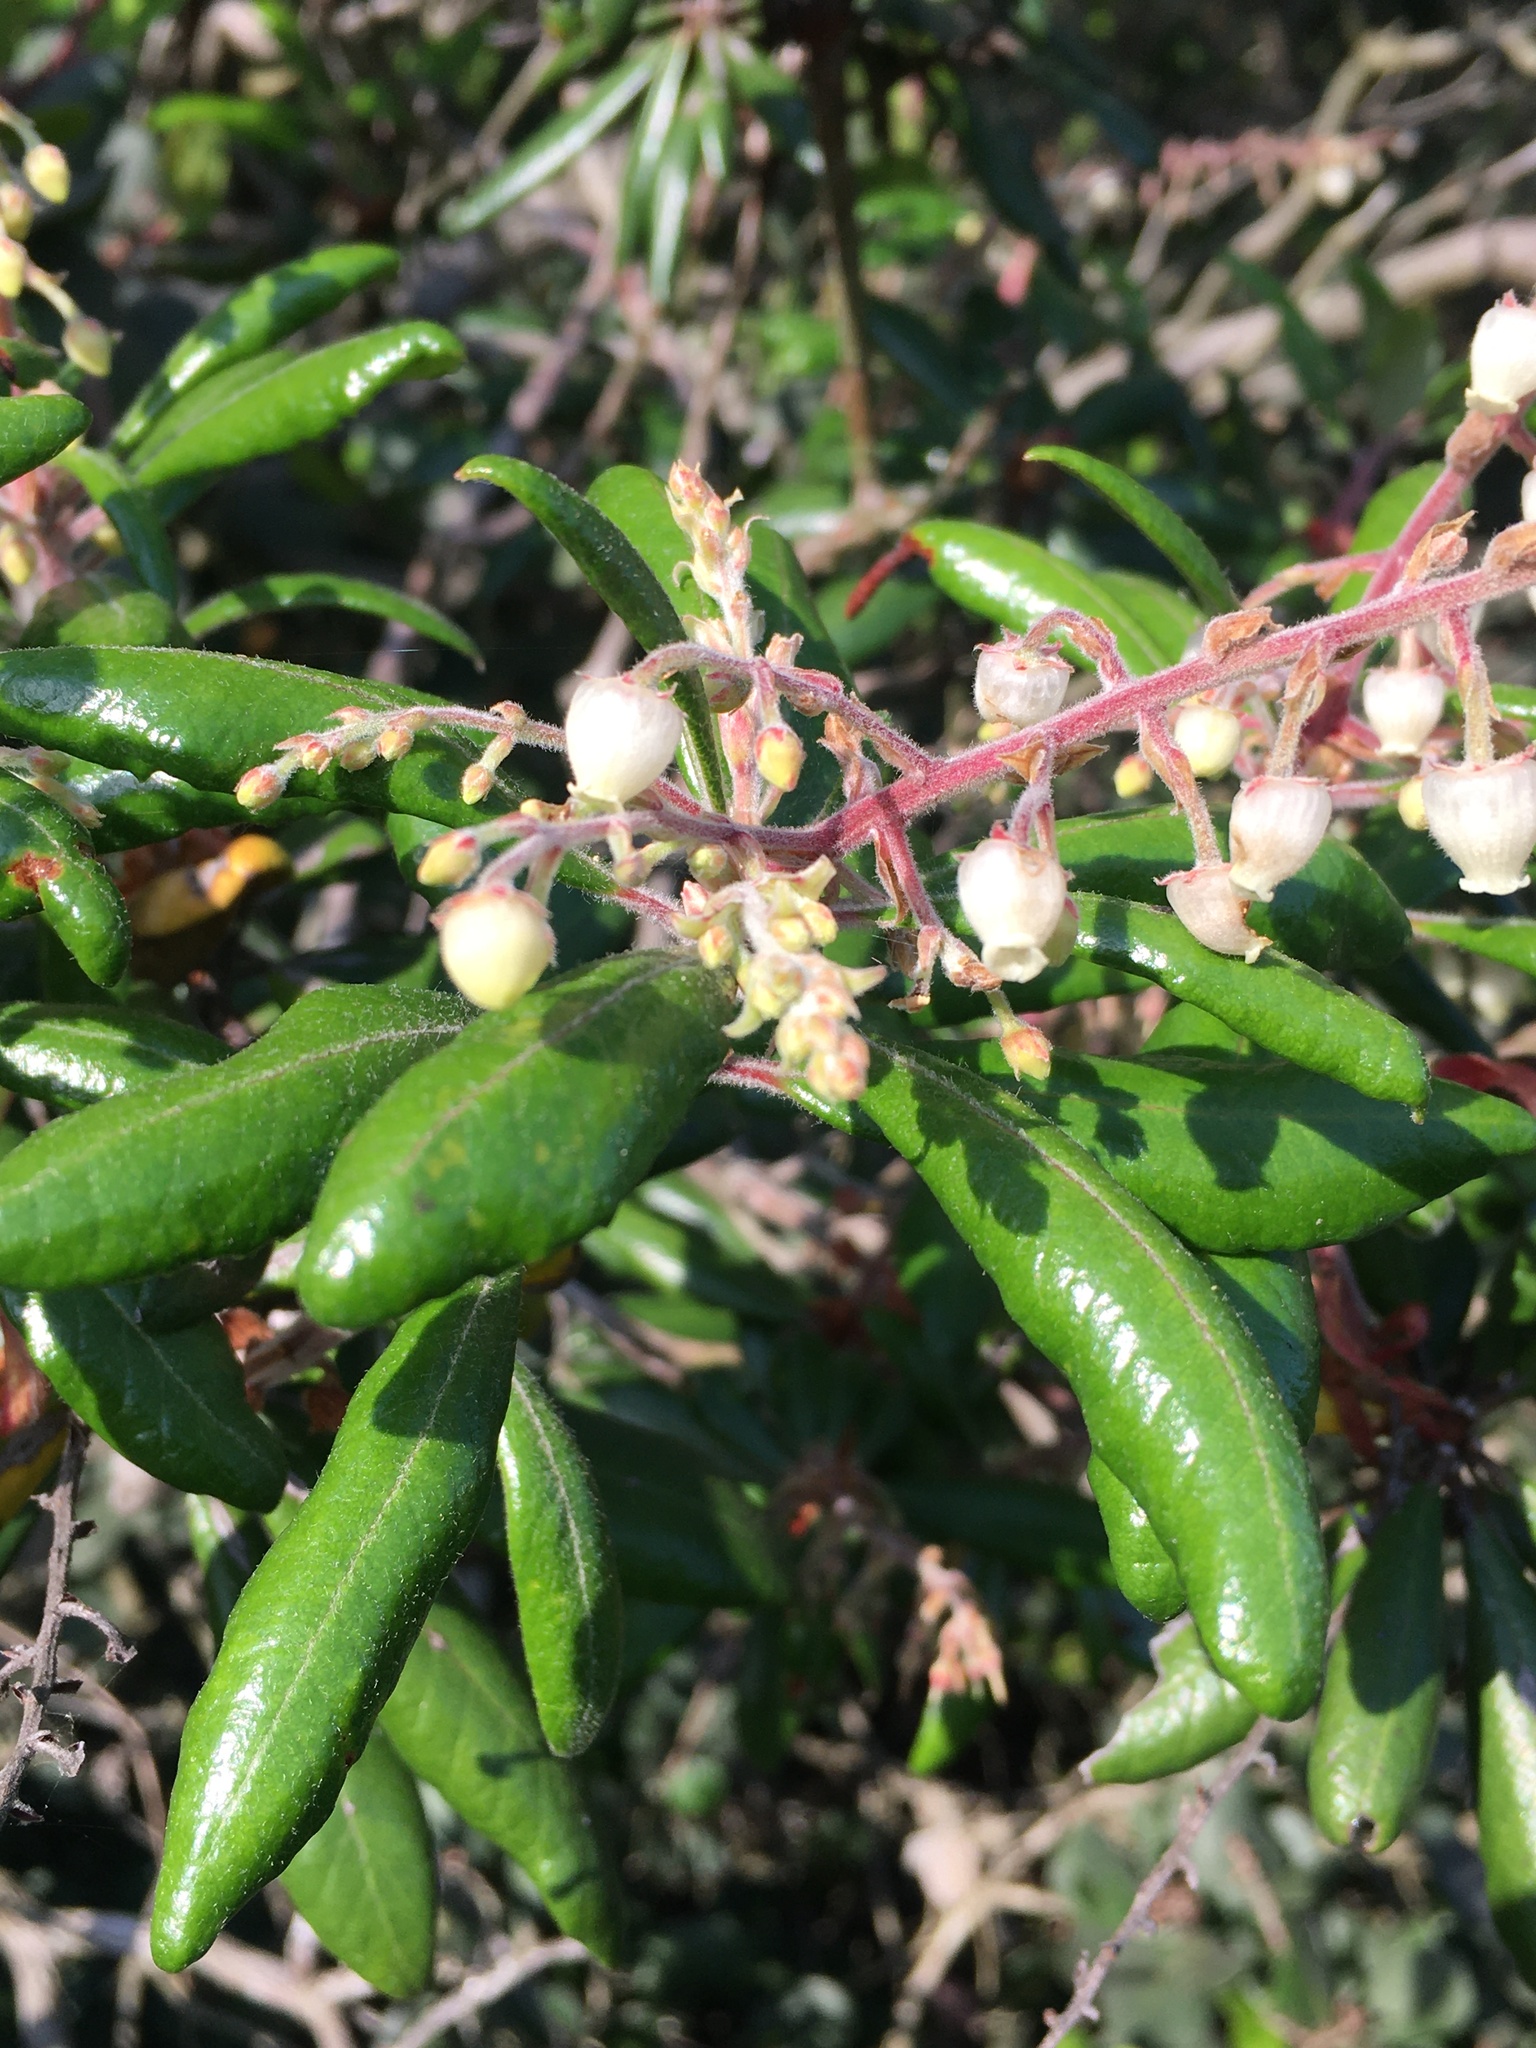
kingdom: Plantae
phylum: Tracheophyta
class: Magnoliopsida
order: Ericales
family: Ericaceae
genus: Comarostaphylis
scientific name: Comarostaphylis diversifolia
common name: Summer-holly
